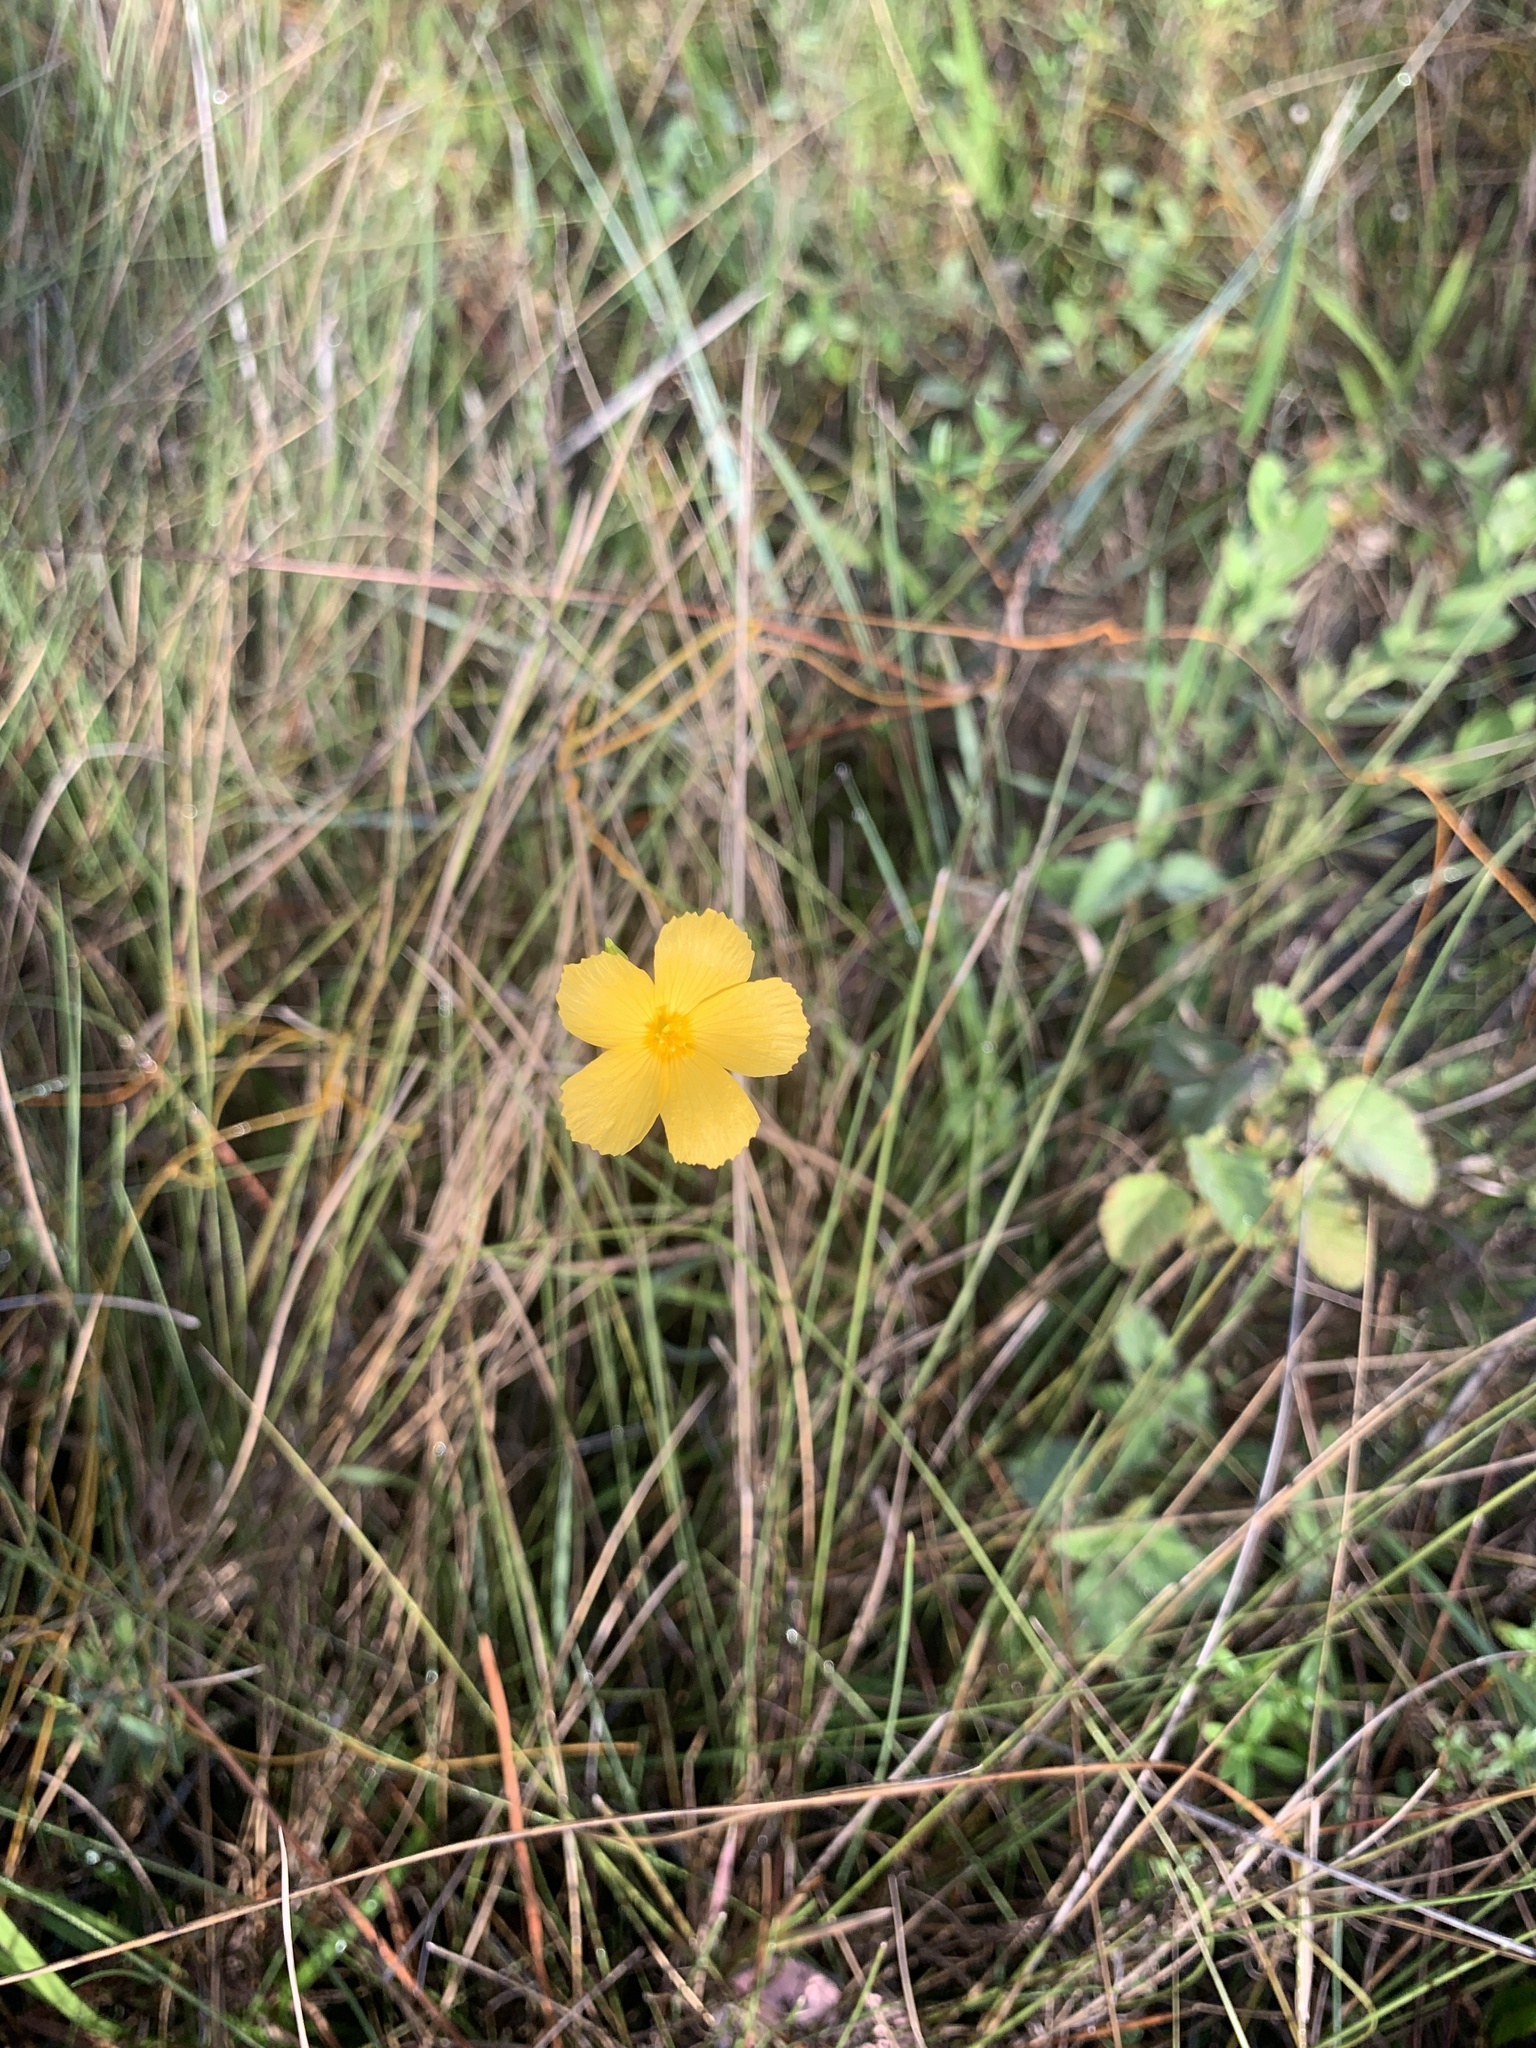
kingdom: Plantae
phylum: Tracheophyta
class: Magnoliopsida
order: Malpighiales
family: Turneraceae
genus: Piriqueta
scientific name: Piriqueta cistoides
